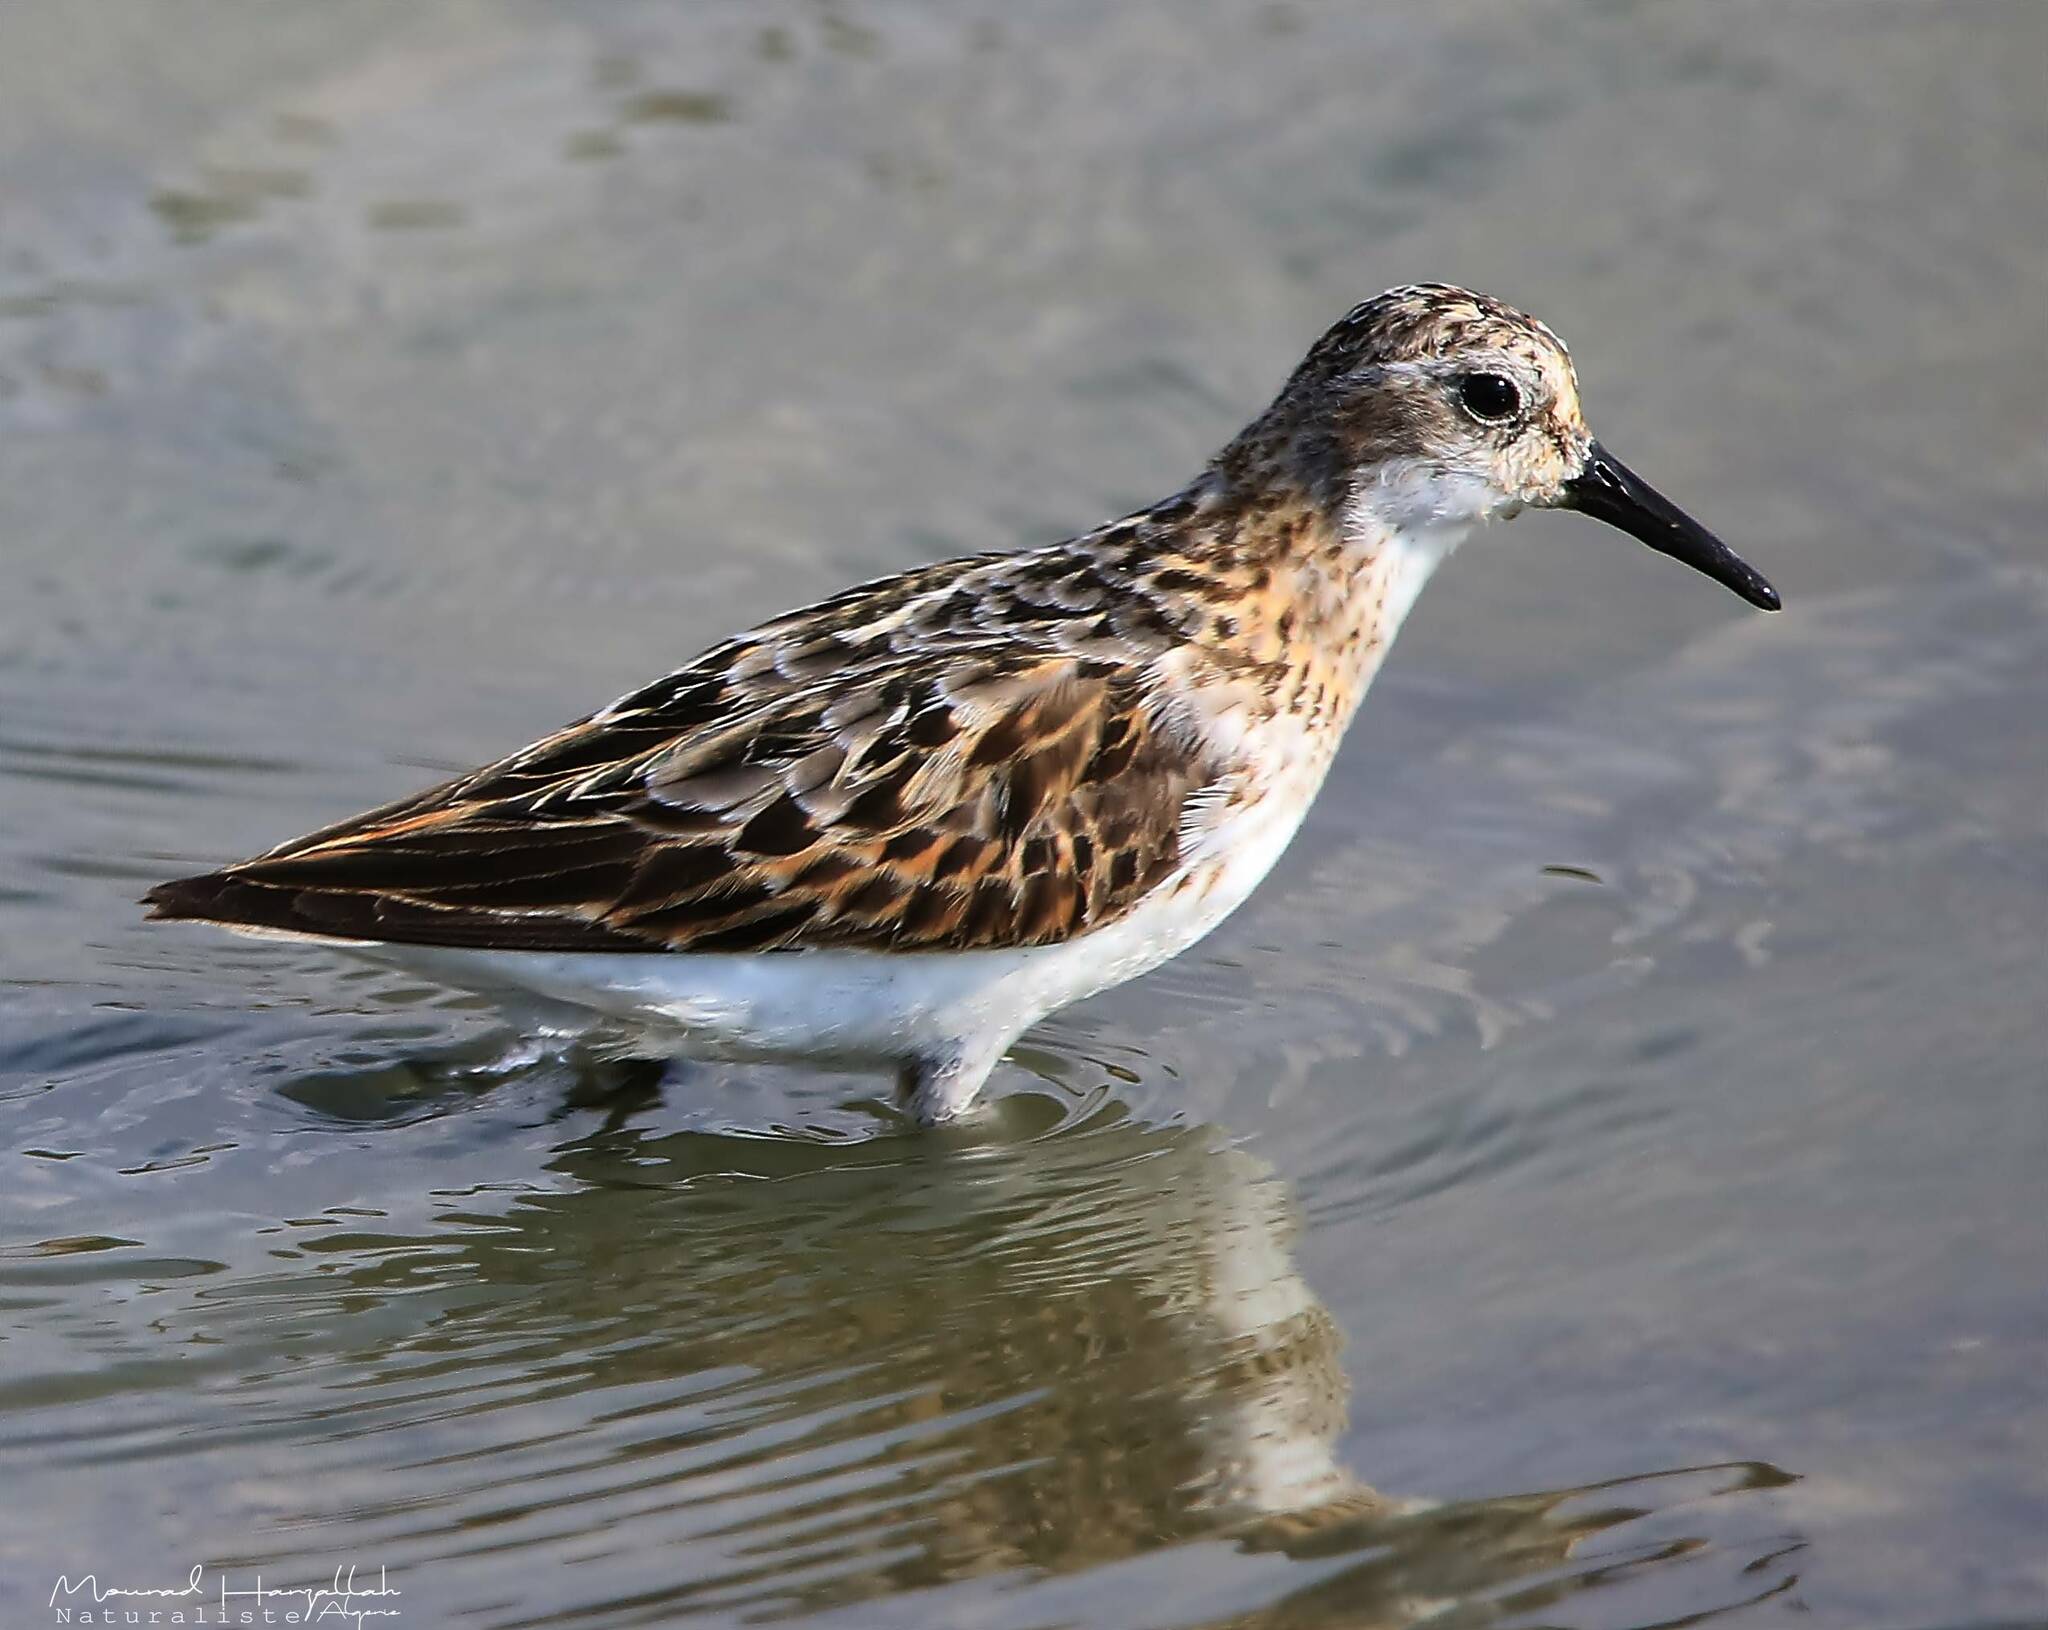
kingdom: Animalia
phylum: Chordata
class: Aves
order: Charadriiformes
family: Scolopacidae
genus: Calidris
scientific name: Calidris minuta
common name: Little stint
